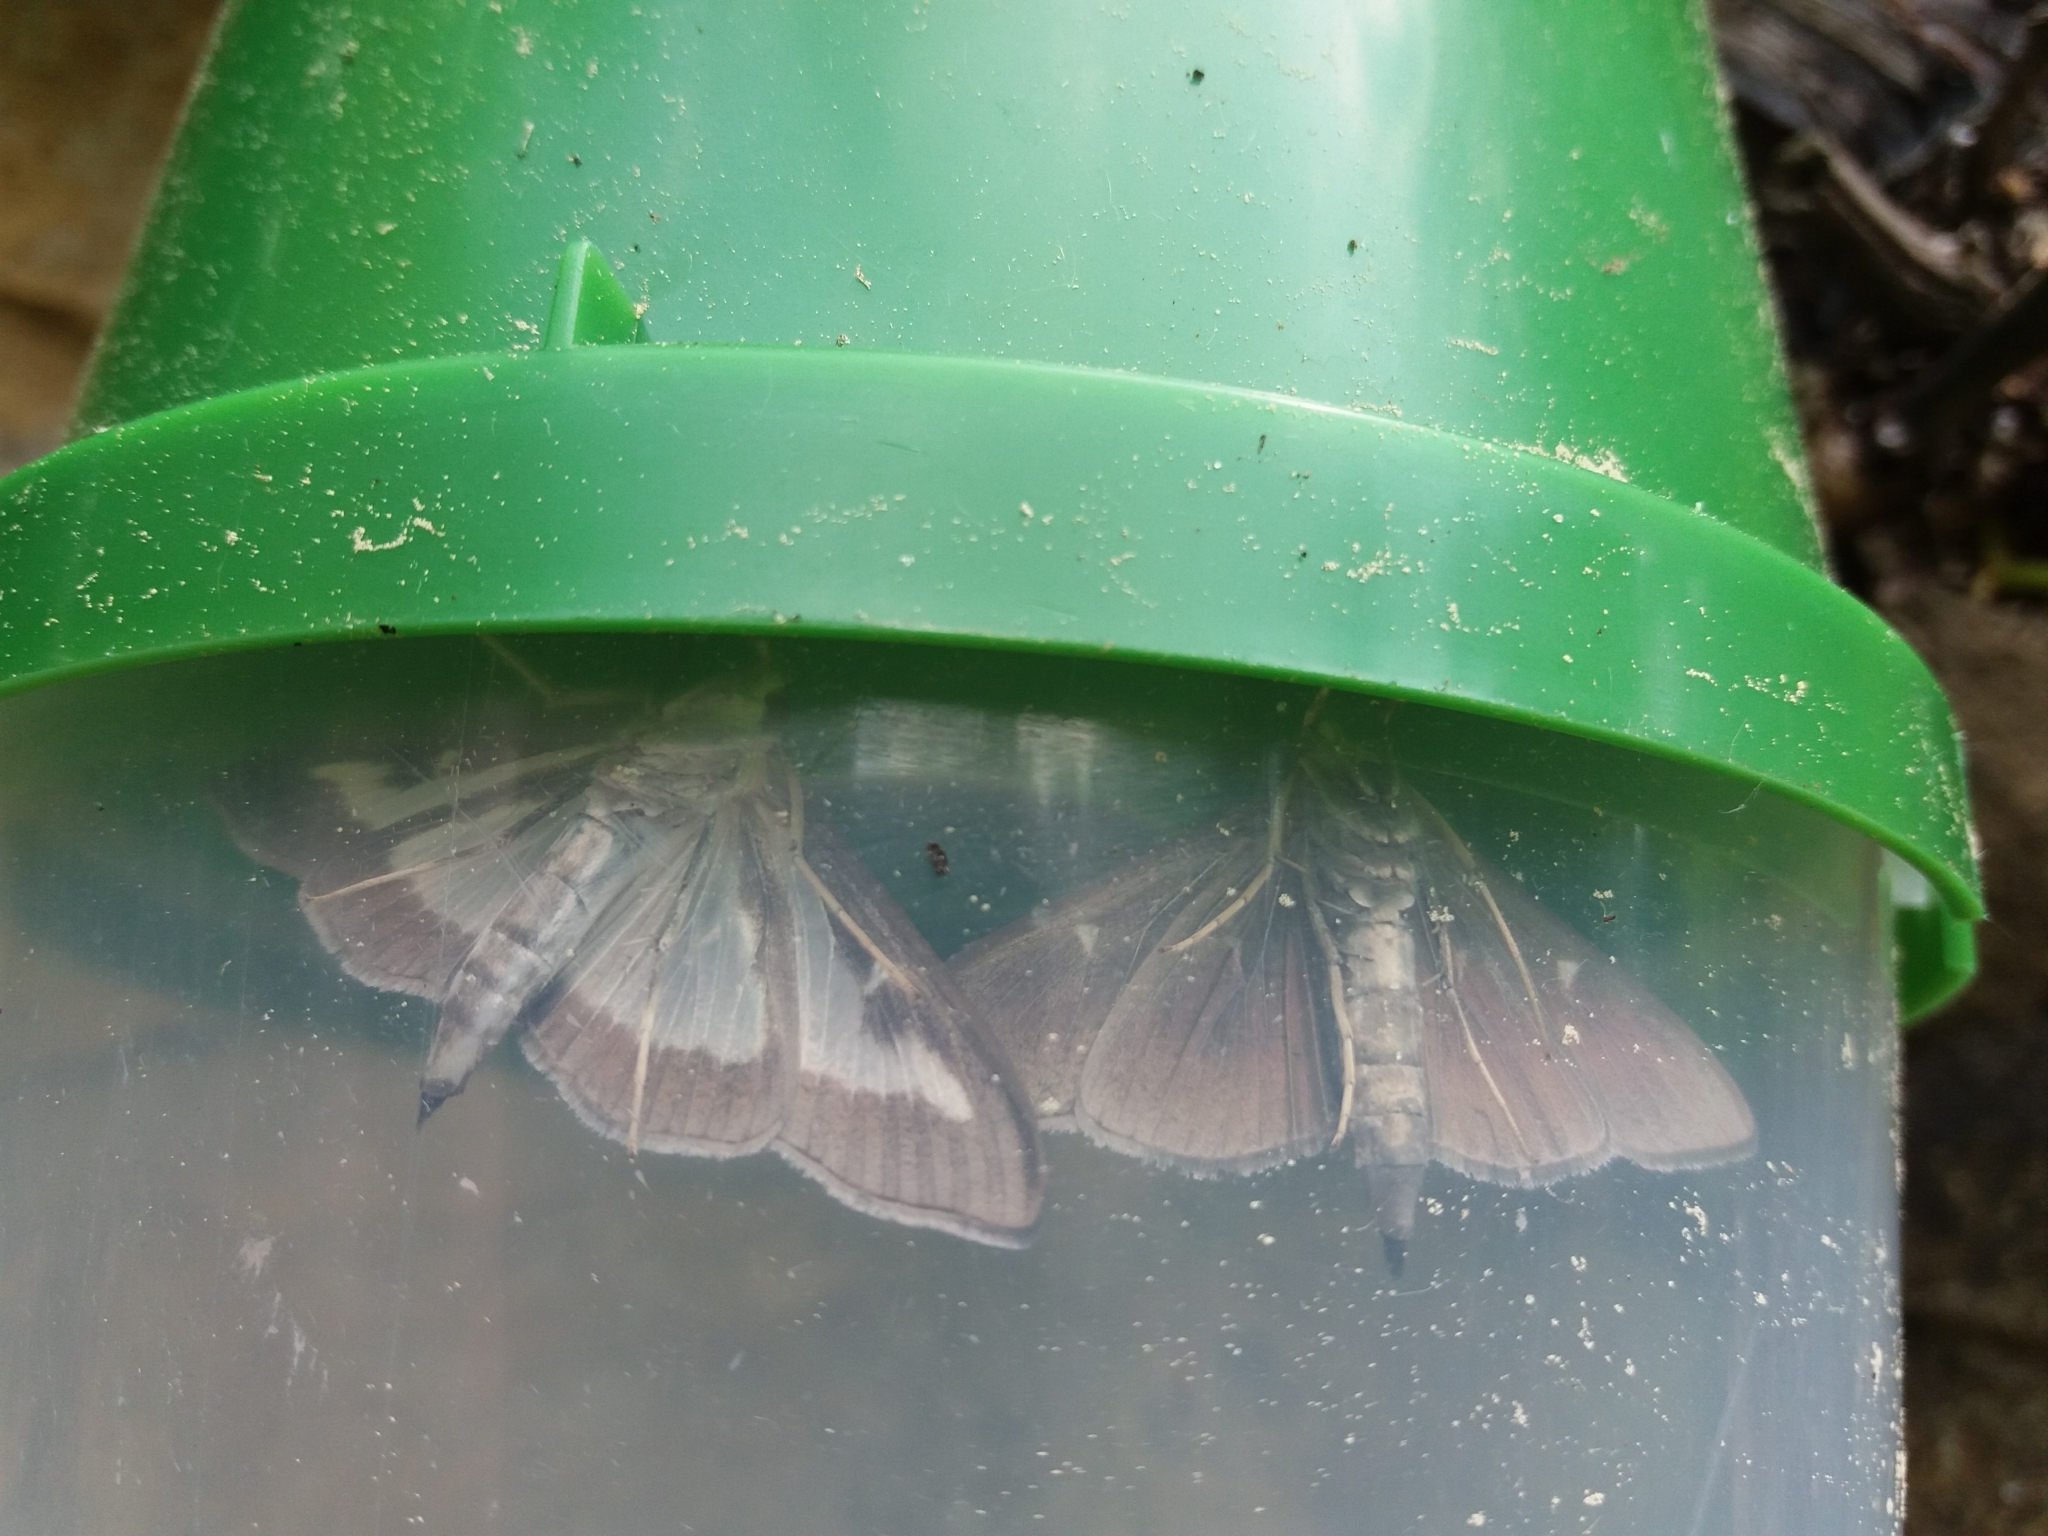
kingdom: Animalia
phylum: Arthropoda
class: Insecta
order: Lepidoptera
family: Crambidae
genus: Cydalima
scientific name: Cydalima perspectalis
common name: Box tree moth
